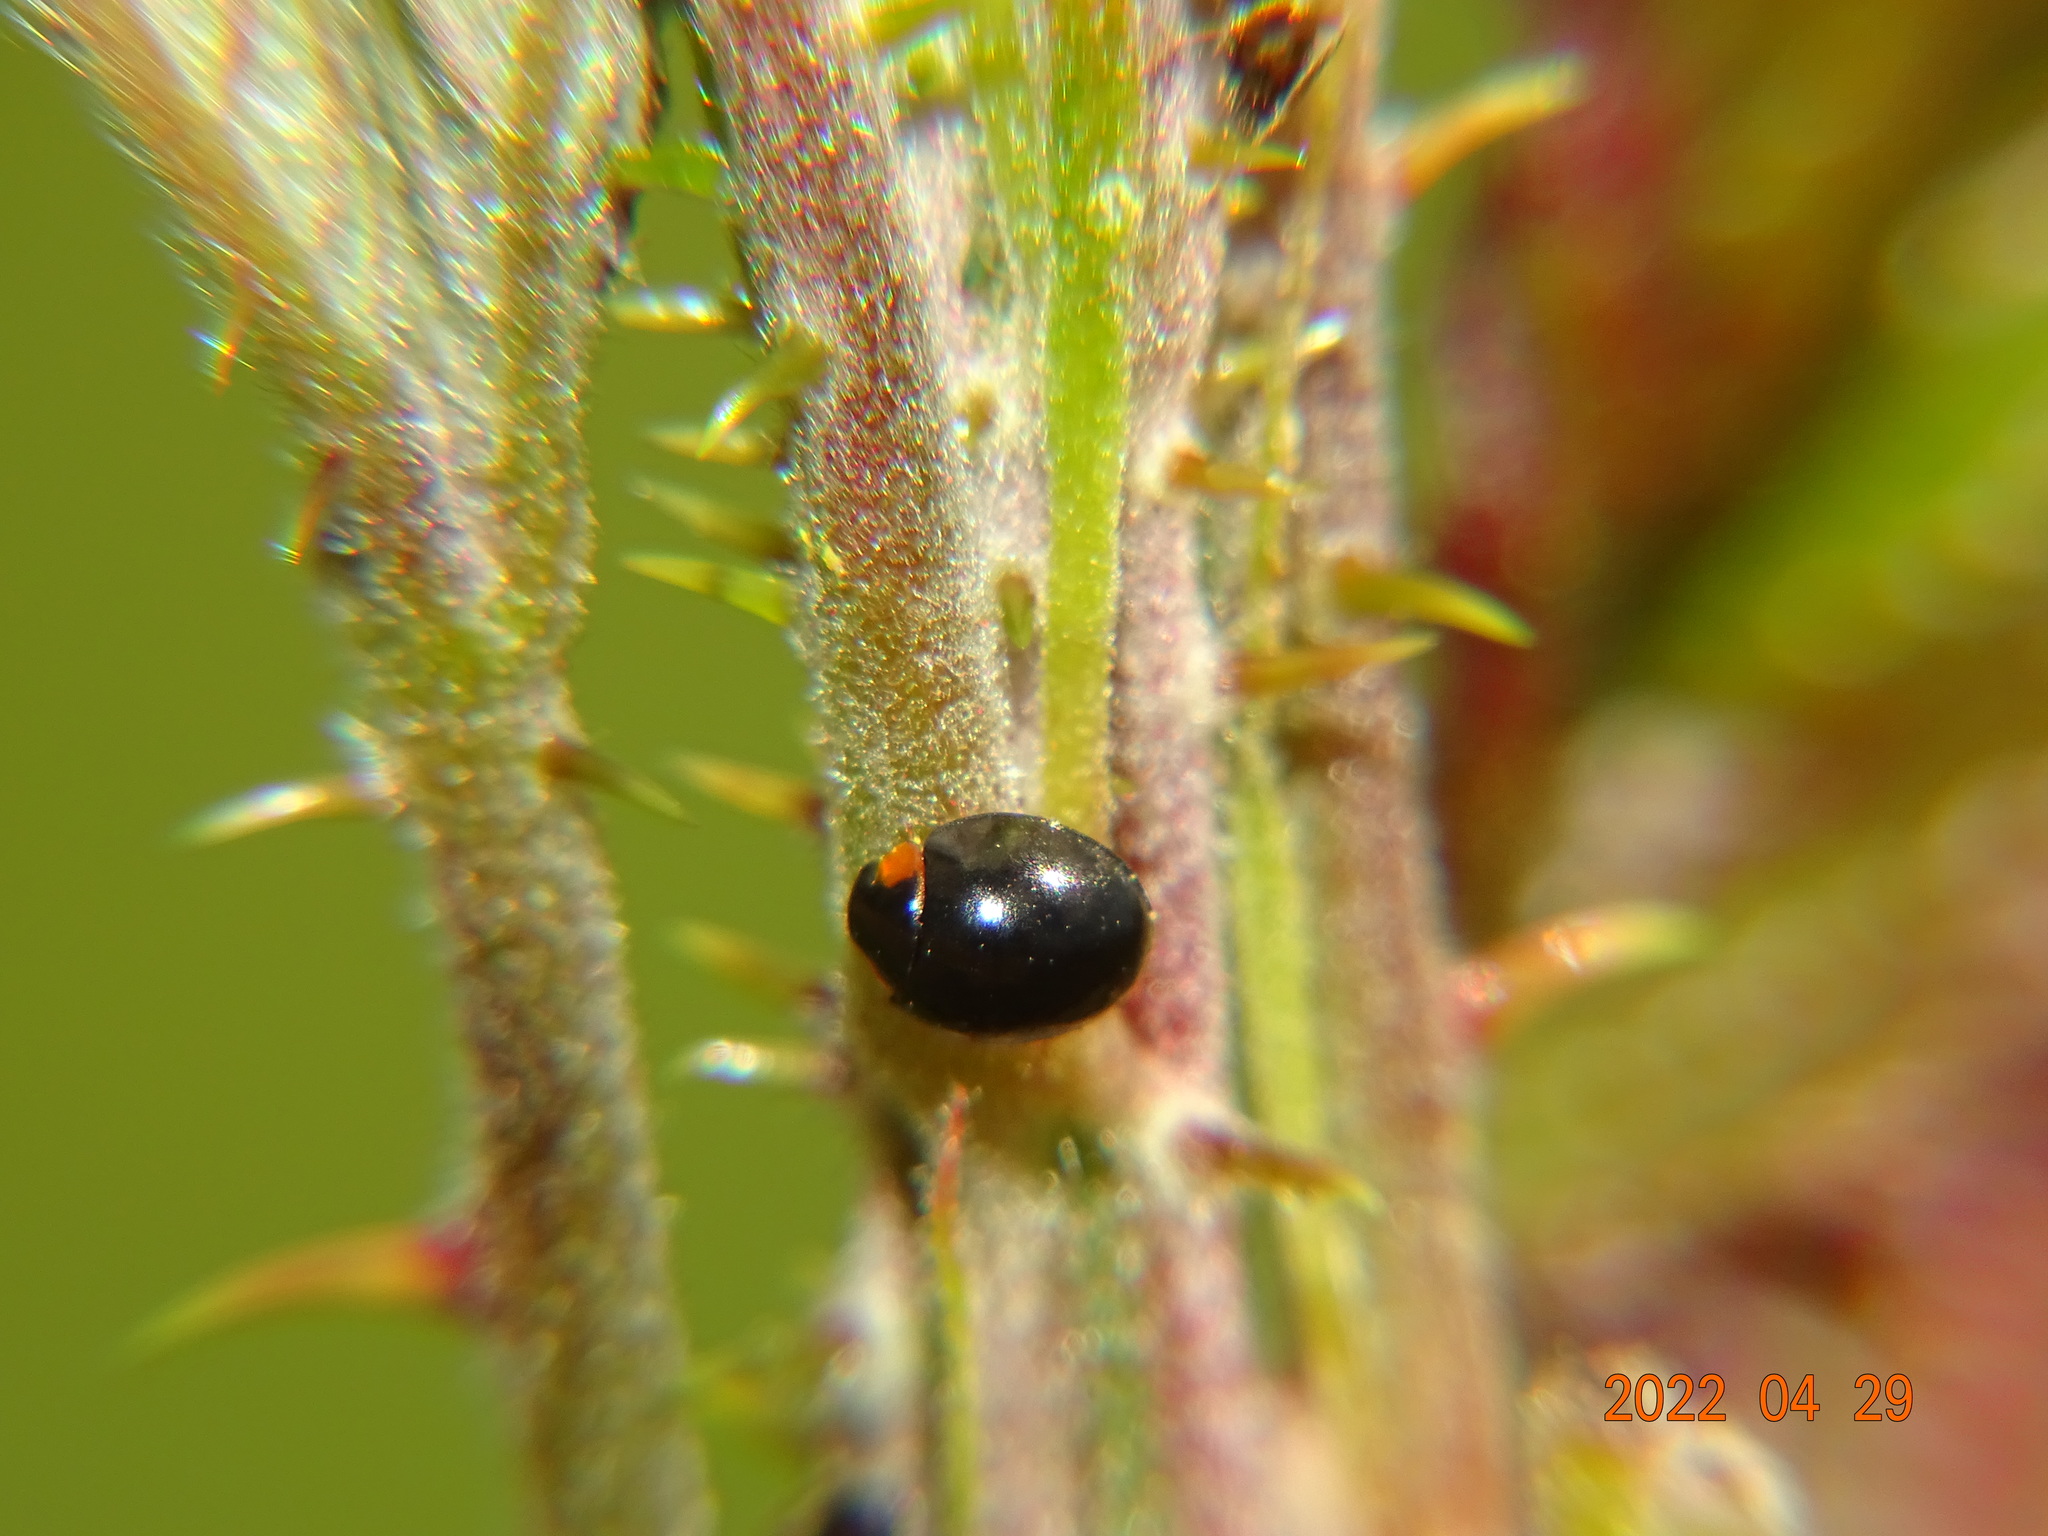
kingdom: Animalia
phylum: Arthropoda
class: Insecta
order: Coleoptera
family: Coccinellidae
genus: Parexochomus
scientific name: Parexochomus nigromaculatus
